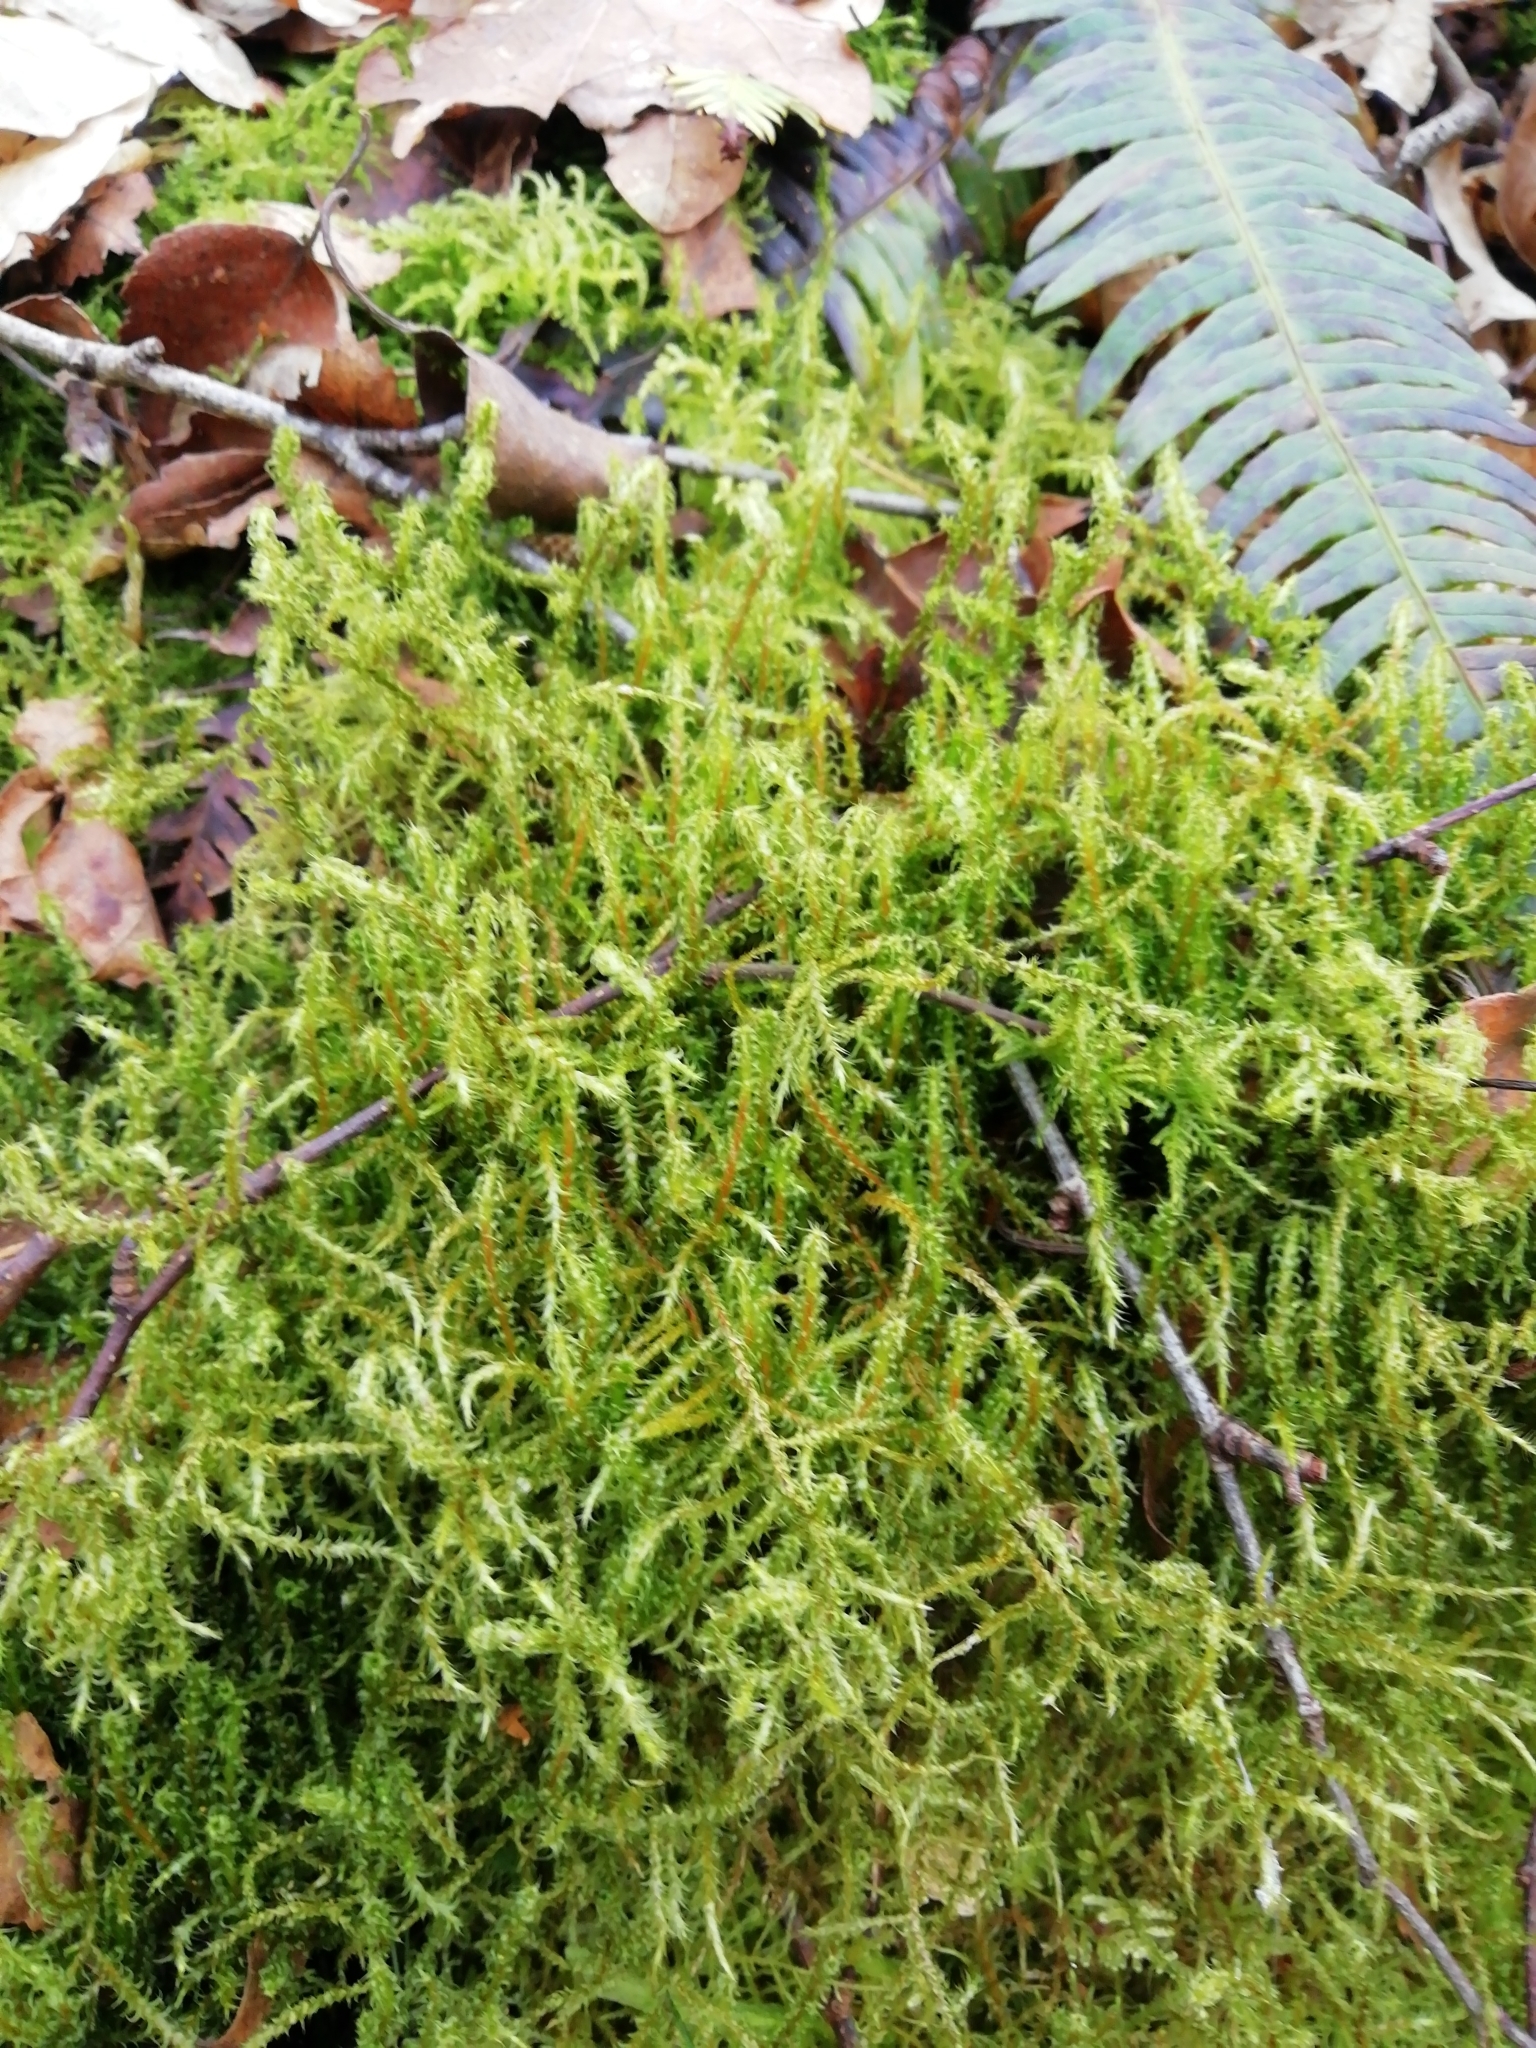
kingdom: Plantae
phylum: Bryophyta
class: Bryopsida
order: Hypnales
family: Hylocomiaceae
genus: Rhytidiadelphus
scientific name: Rhytidiadelphus squarrosus
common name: Springy turf-moss
